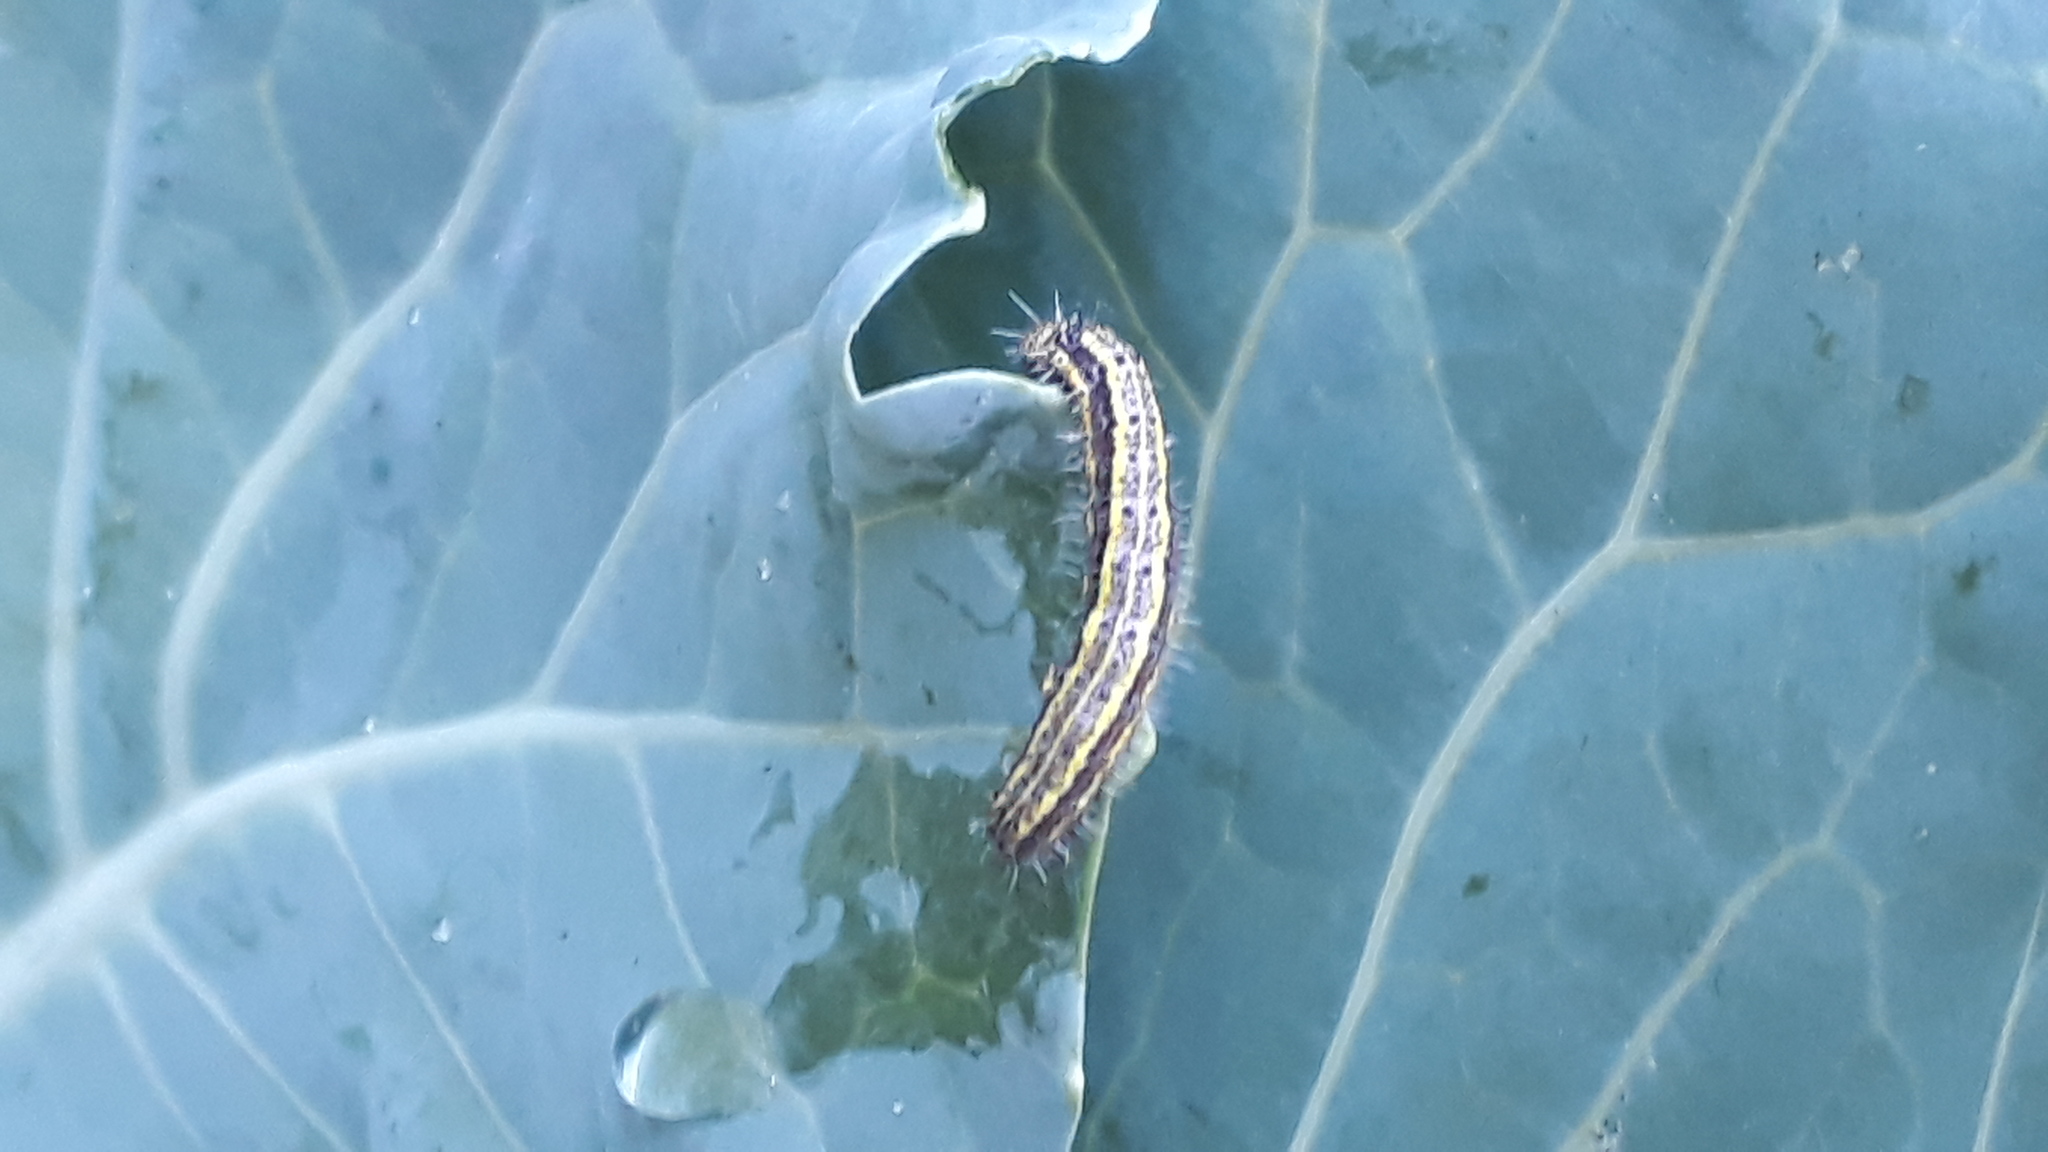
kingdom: Animalia
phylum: Arthropoda
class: Insecta
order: Lepidoptera
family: Pieridae
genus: Ascia
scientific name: Ascia monuste
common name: Great southern white
